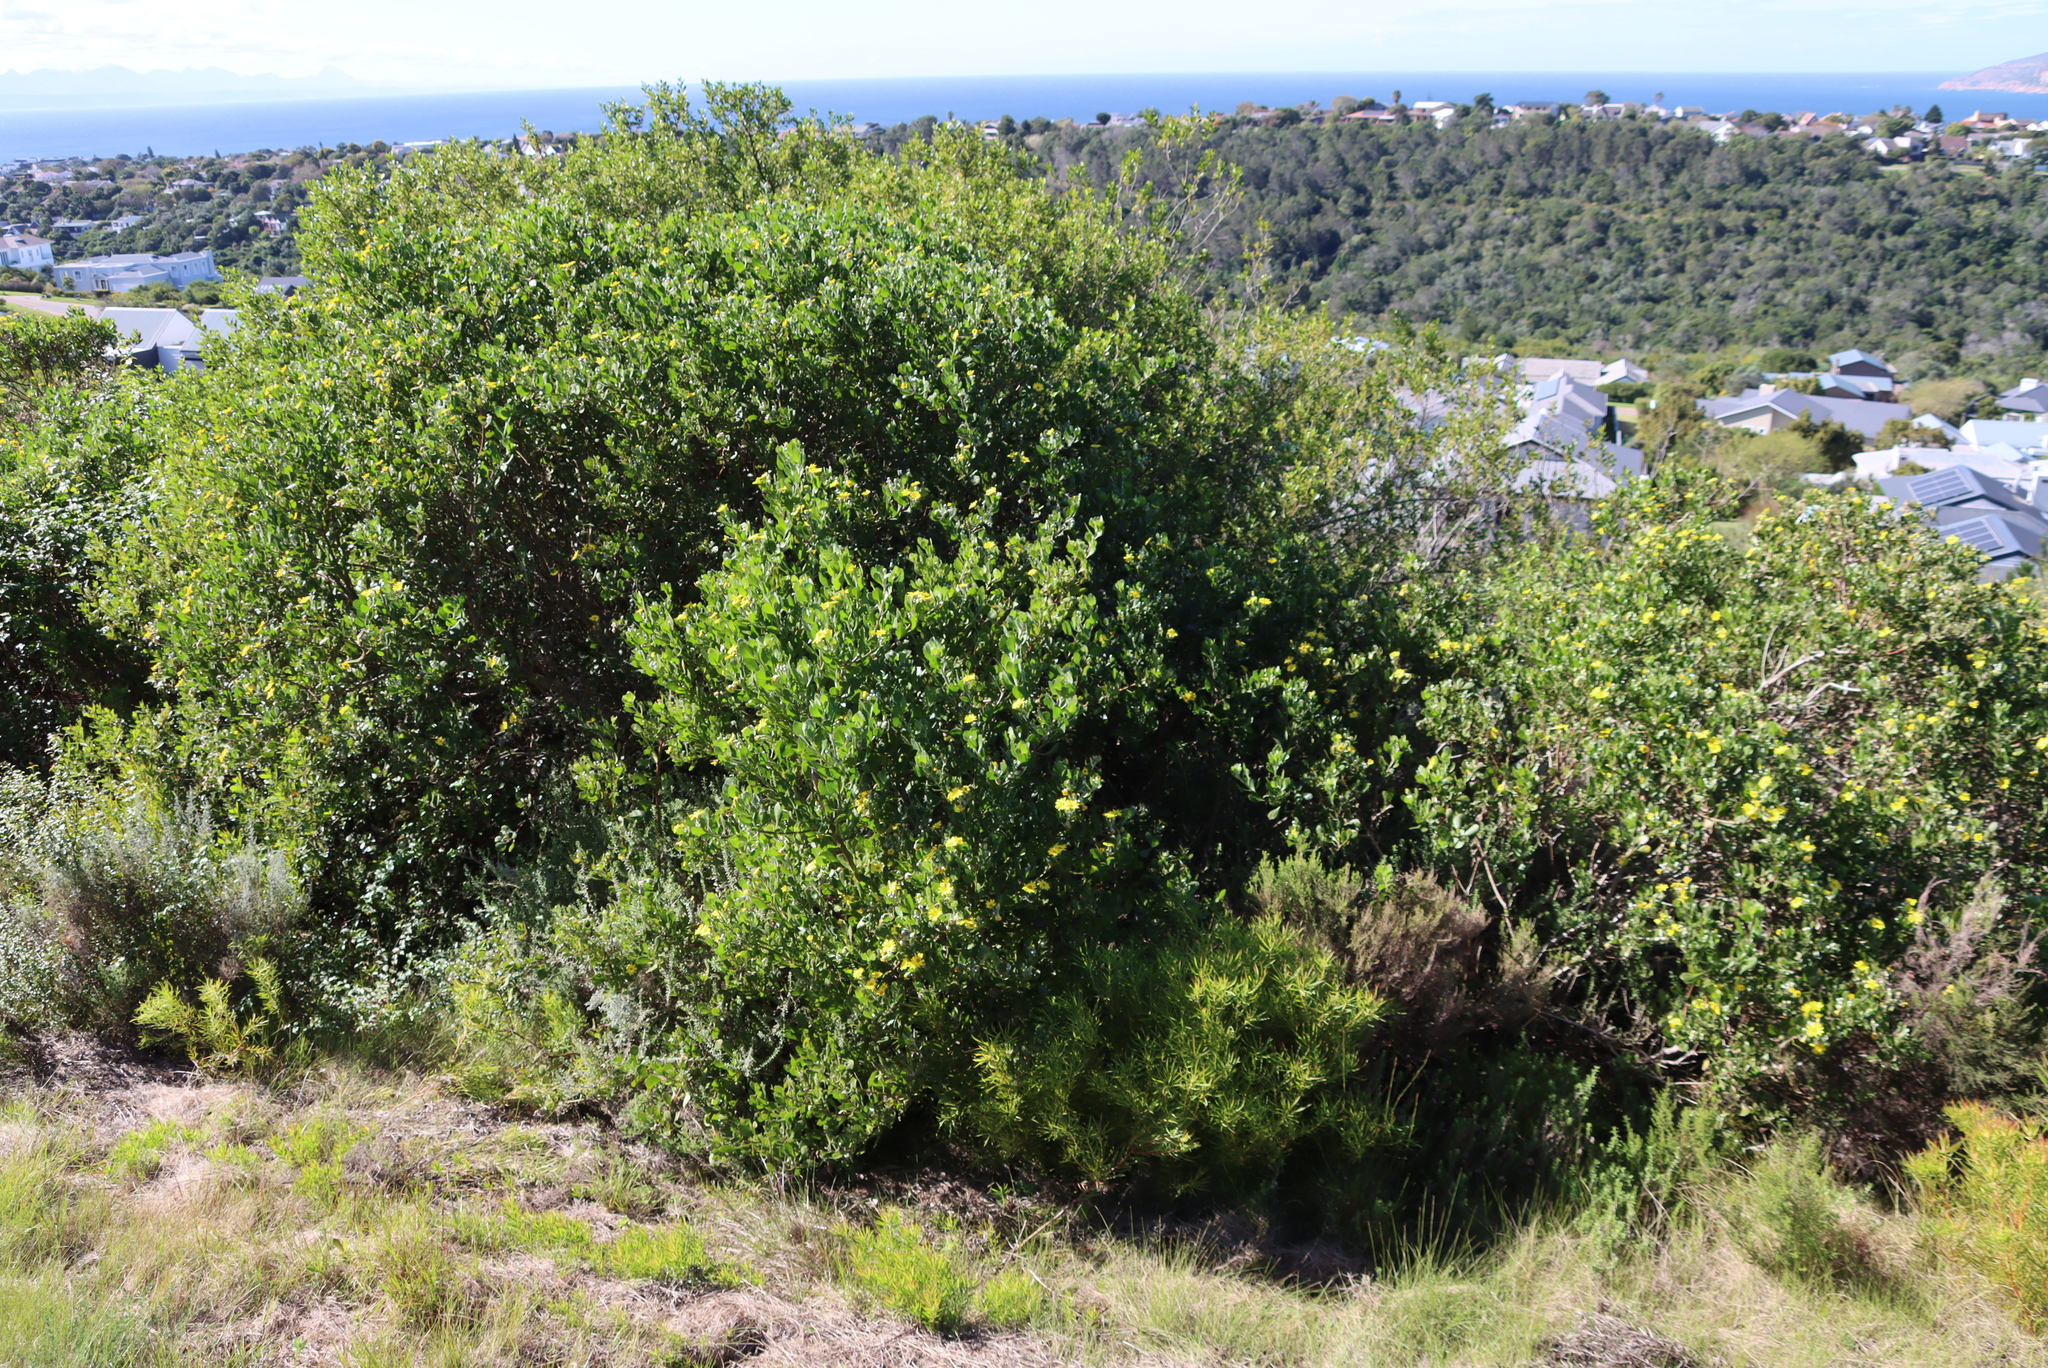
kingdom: Plantae
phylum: Tracheophyta
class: Magnoliopsida
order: Asterales
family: Asteraceae
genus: Osteospermum
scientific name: Osteospermum moniliferum
